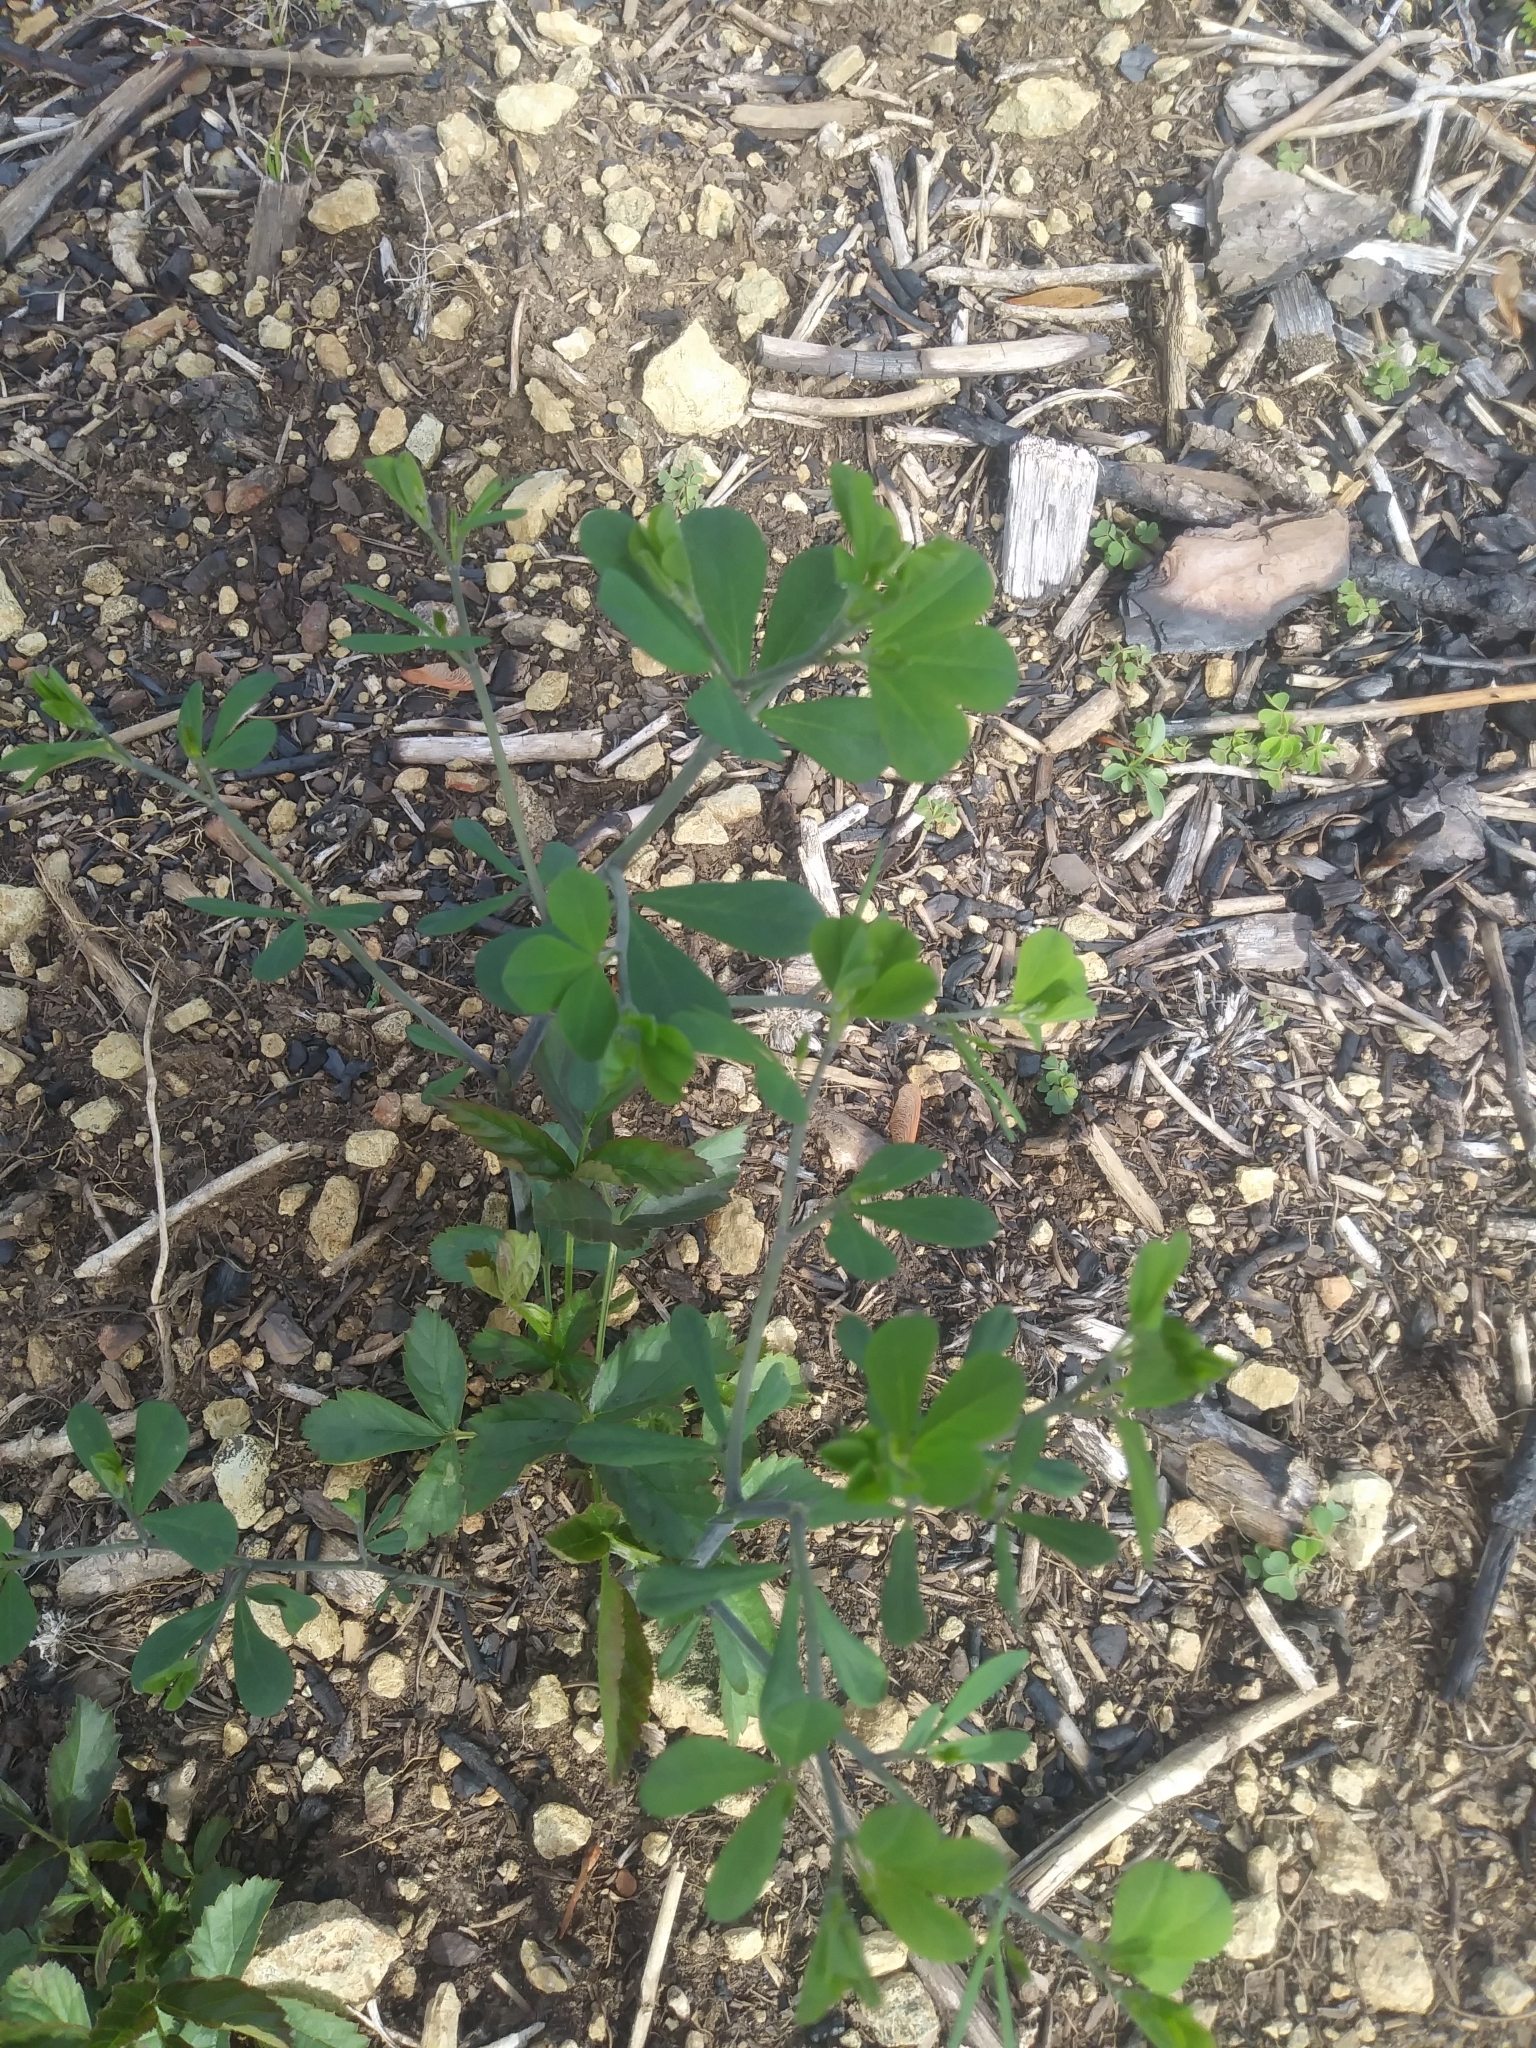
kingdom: Plantae
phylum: Tracheophyta
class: Magnoliopsida
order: Fabales
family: Fabaceae
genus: Baptisia
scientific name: Baptisia tinctoria
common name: Wild indigo
